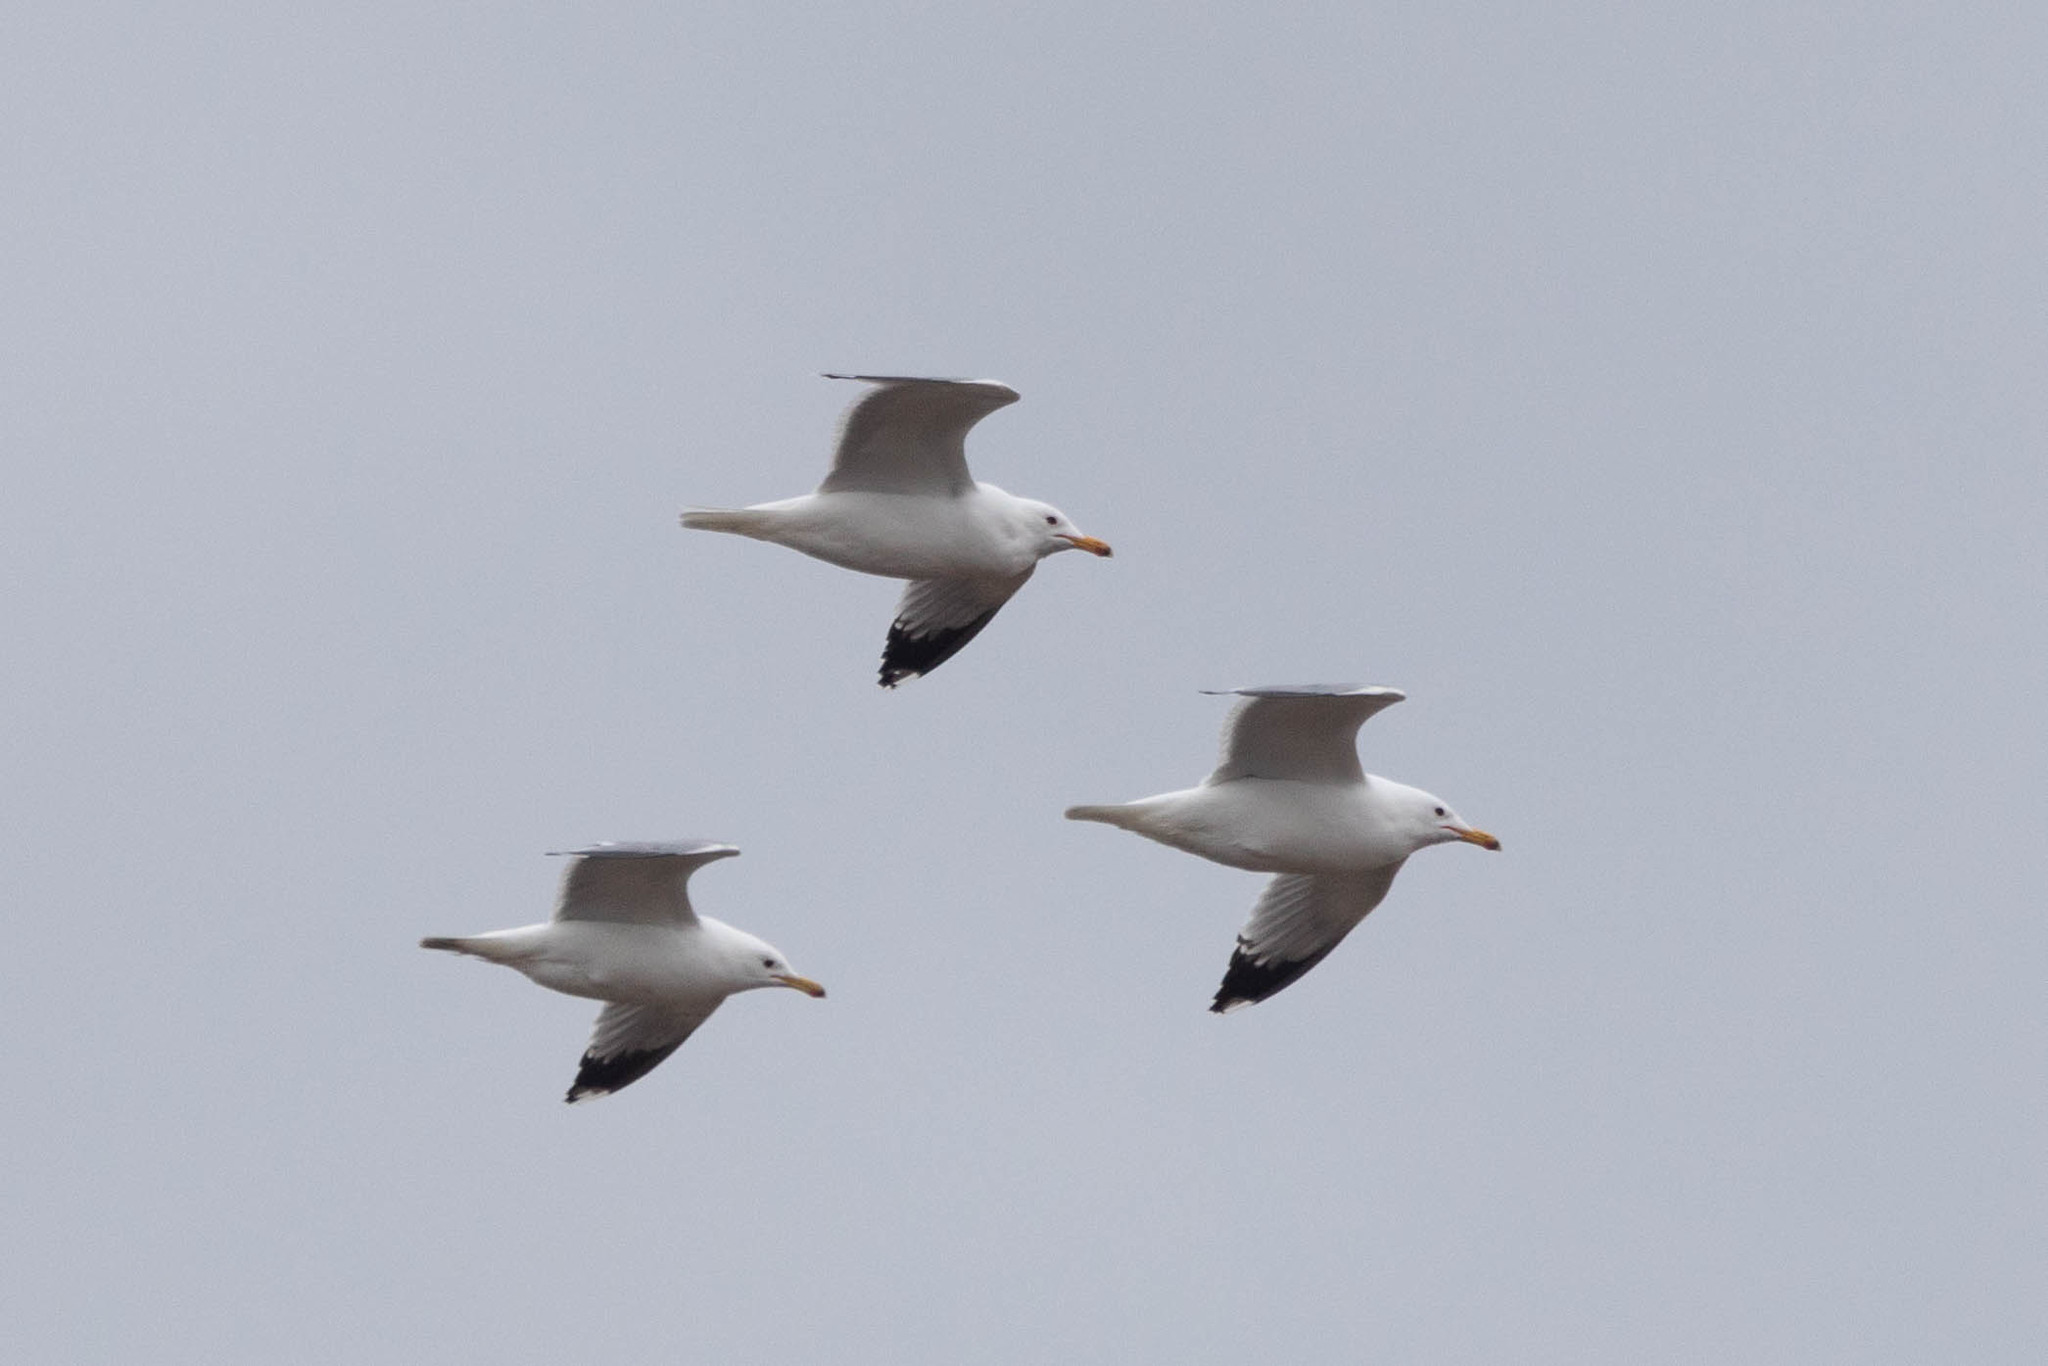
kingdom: Animalia
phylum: Chordata
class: Aves
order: Charadriiformes
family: Laridae
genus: Larus
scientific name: Larus californicus
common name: California gull
